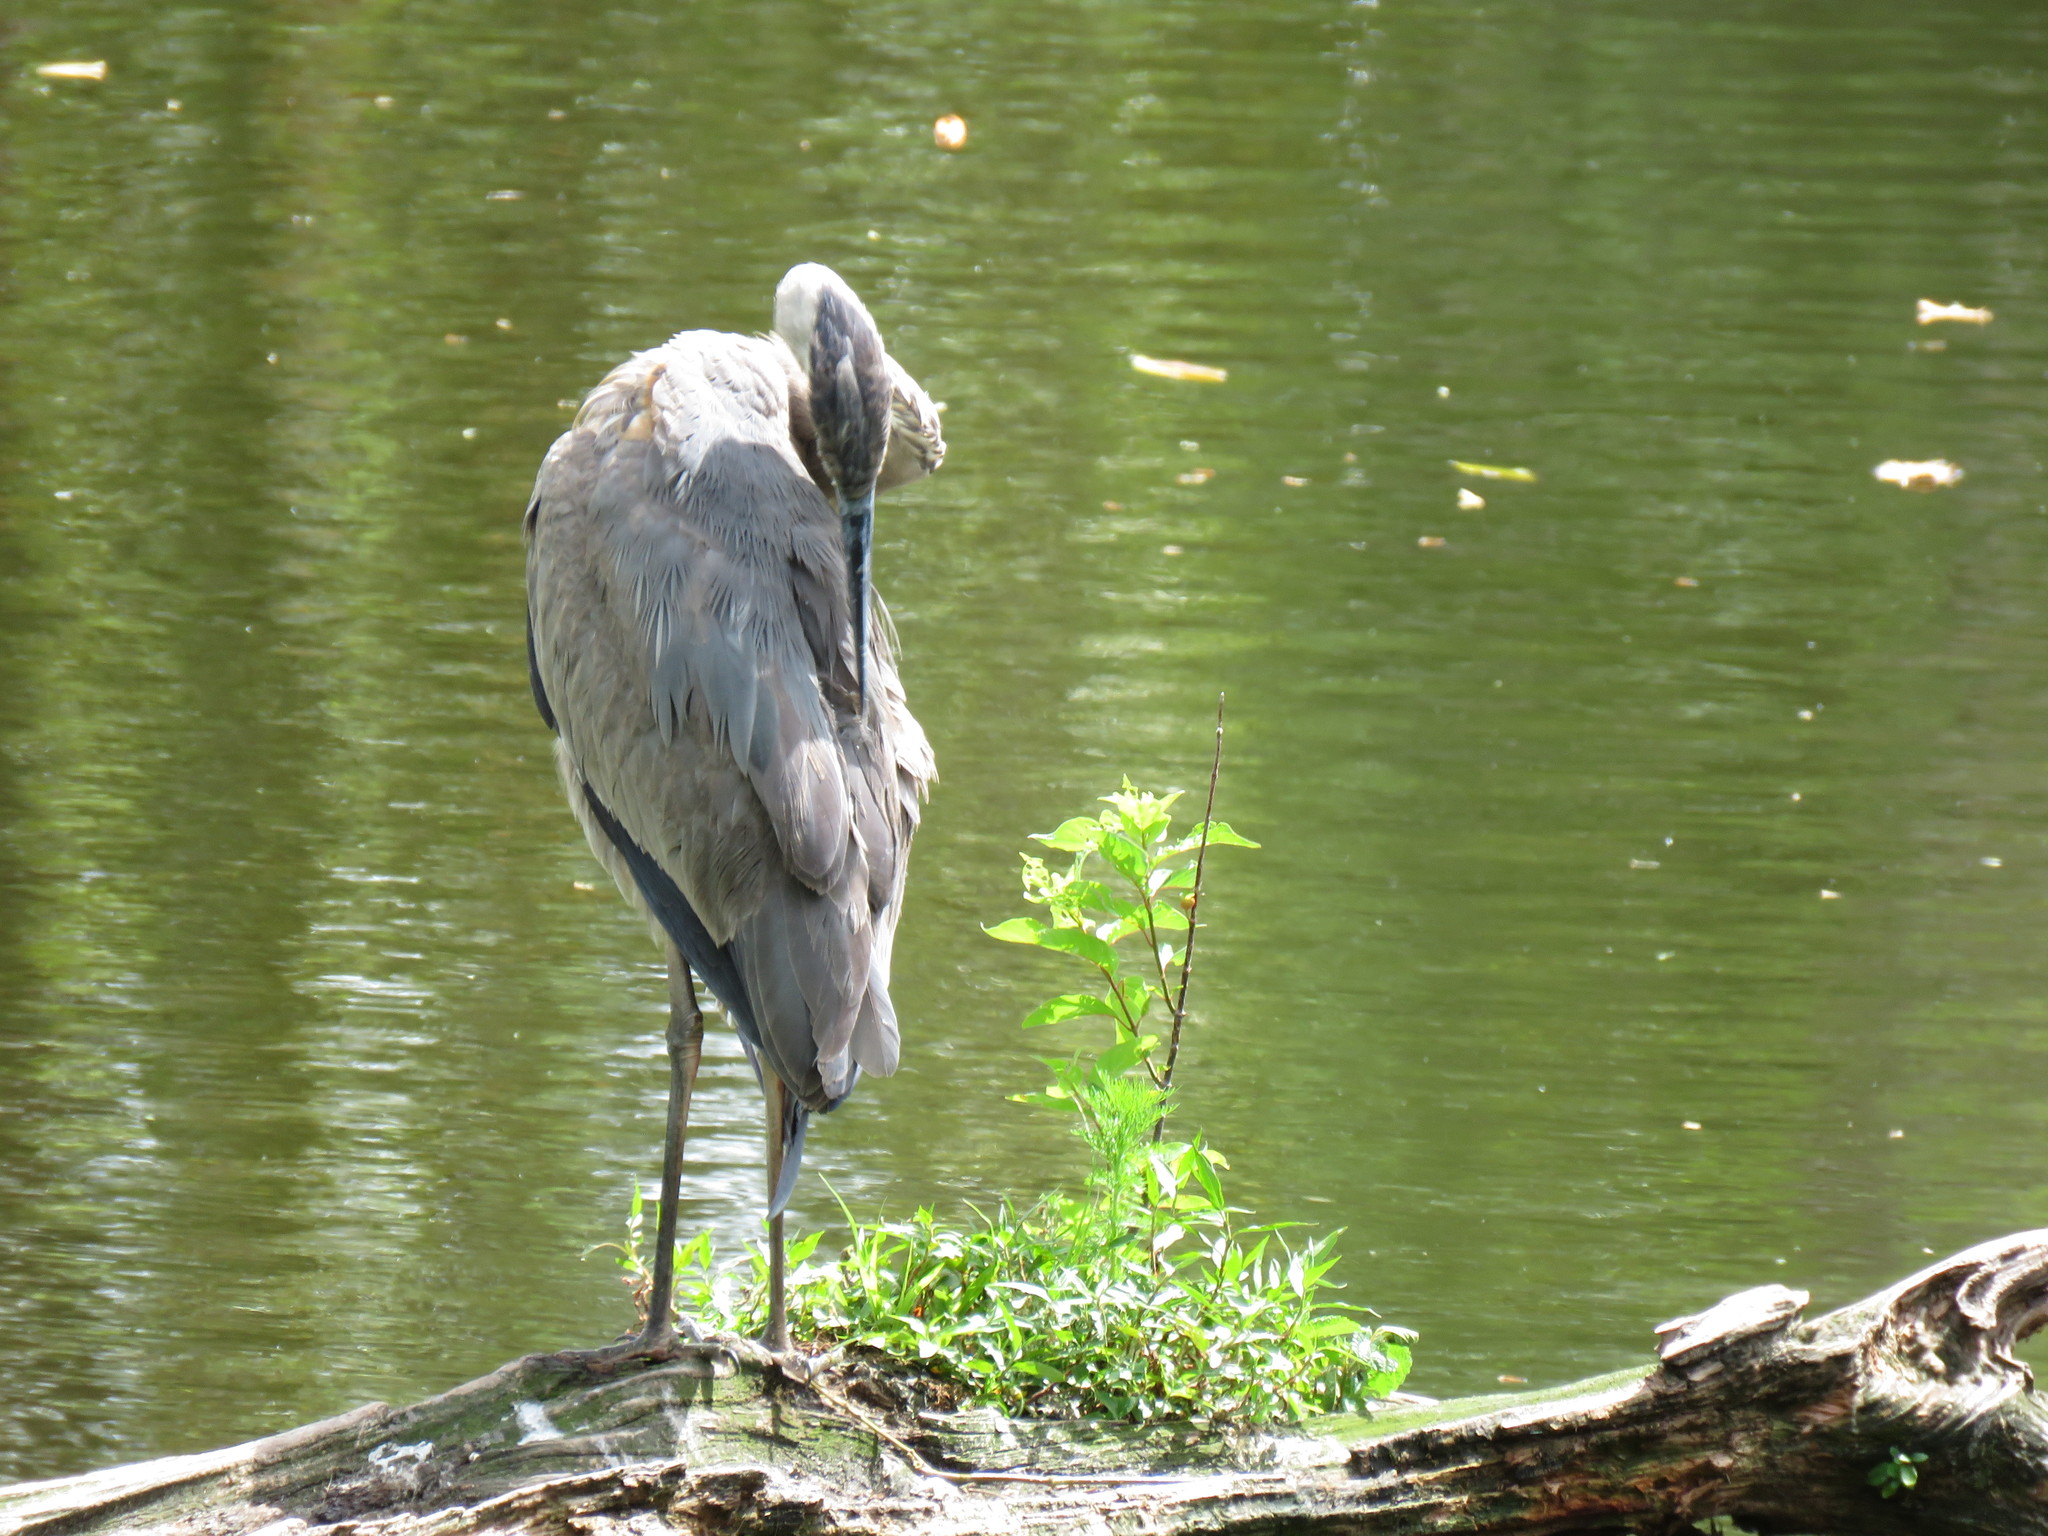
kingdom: Animalia
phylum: Chordata
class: Aves
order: Pelecaniformes
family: Ardeidae
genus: Ardea
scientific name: Ardea herodias
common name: Great blue heron
